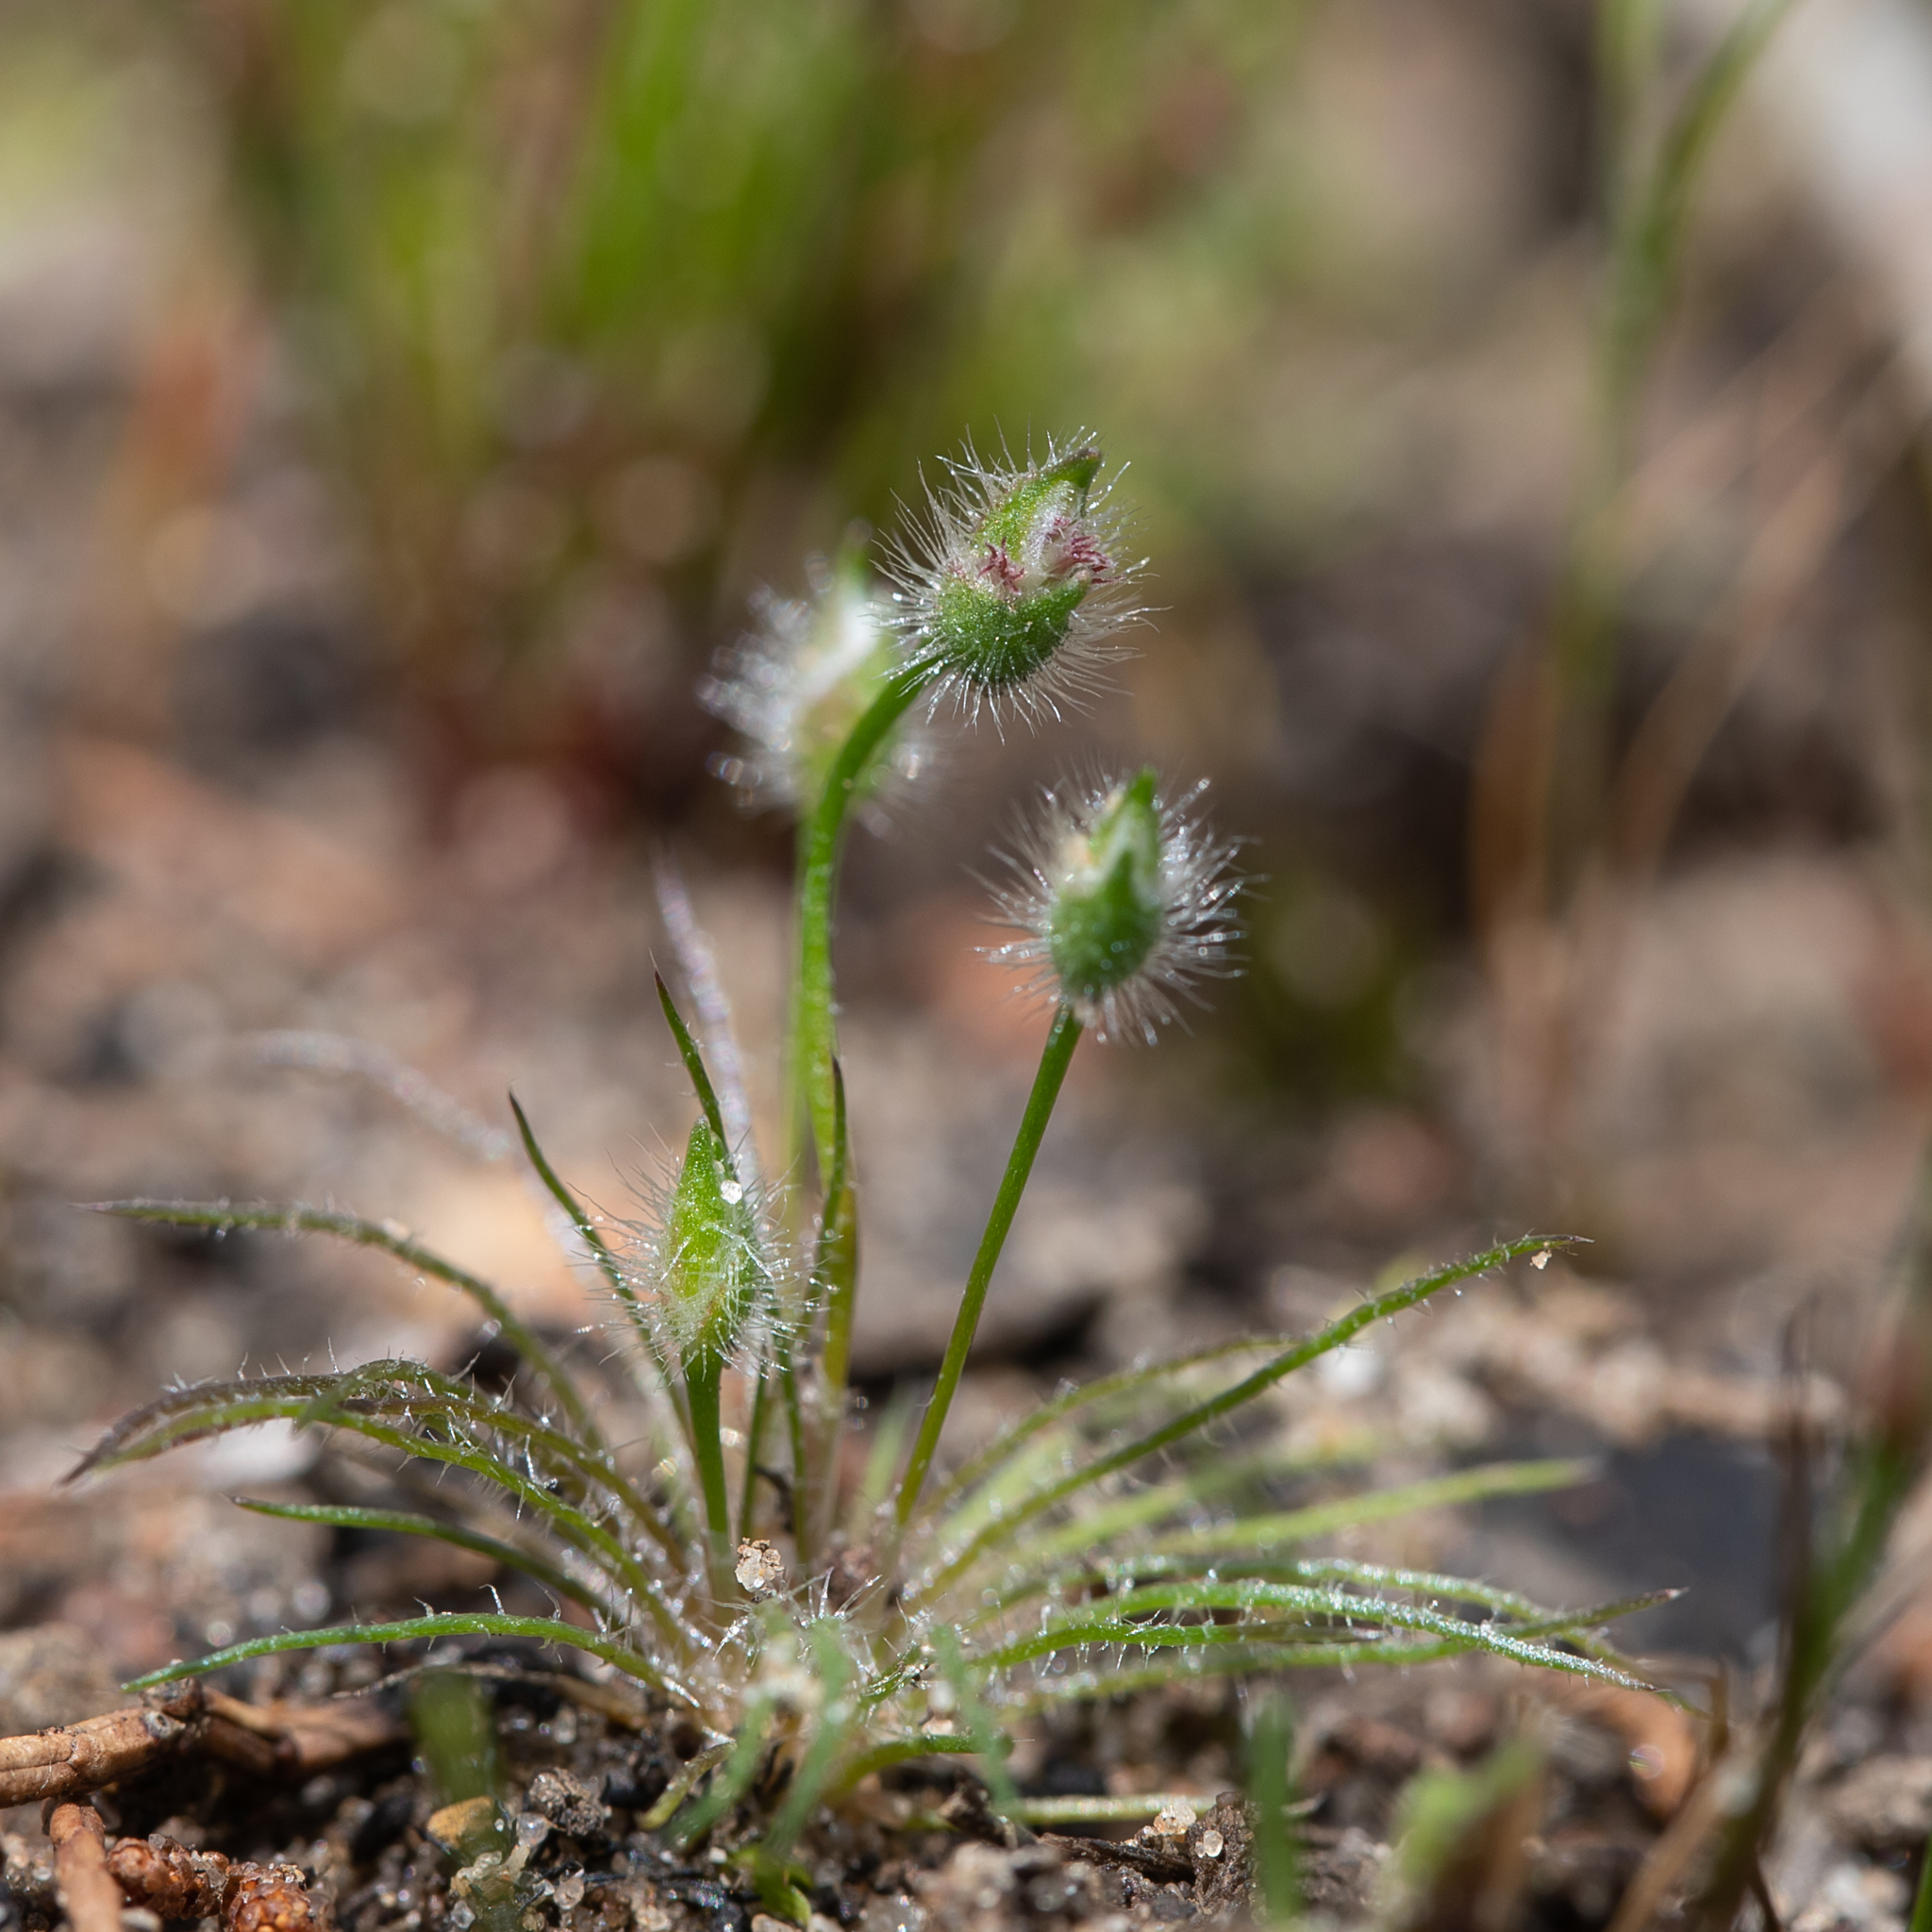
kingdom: Plantae
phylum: Tracheophyta
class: Liliopsida
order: Poales
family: Restionaceae
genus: Centrolepis
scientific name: Centrolepis strigosa
